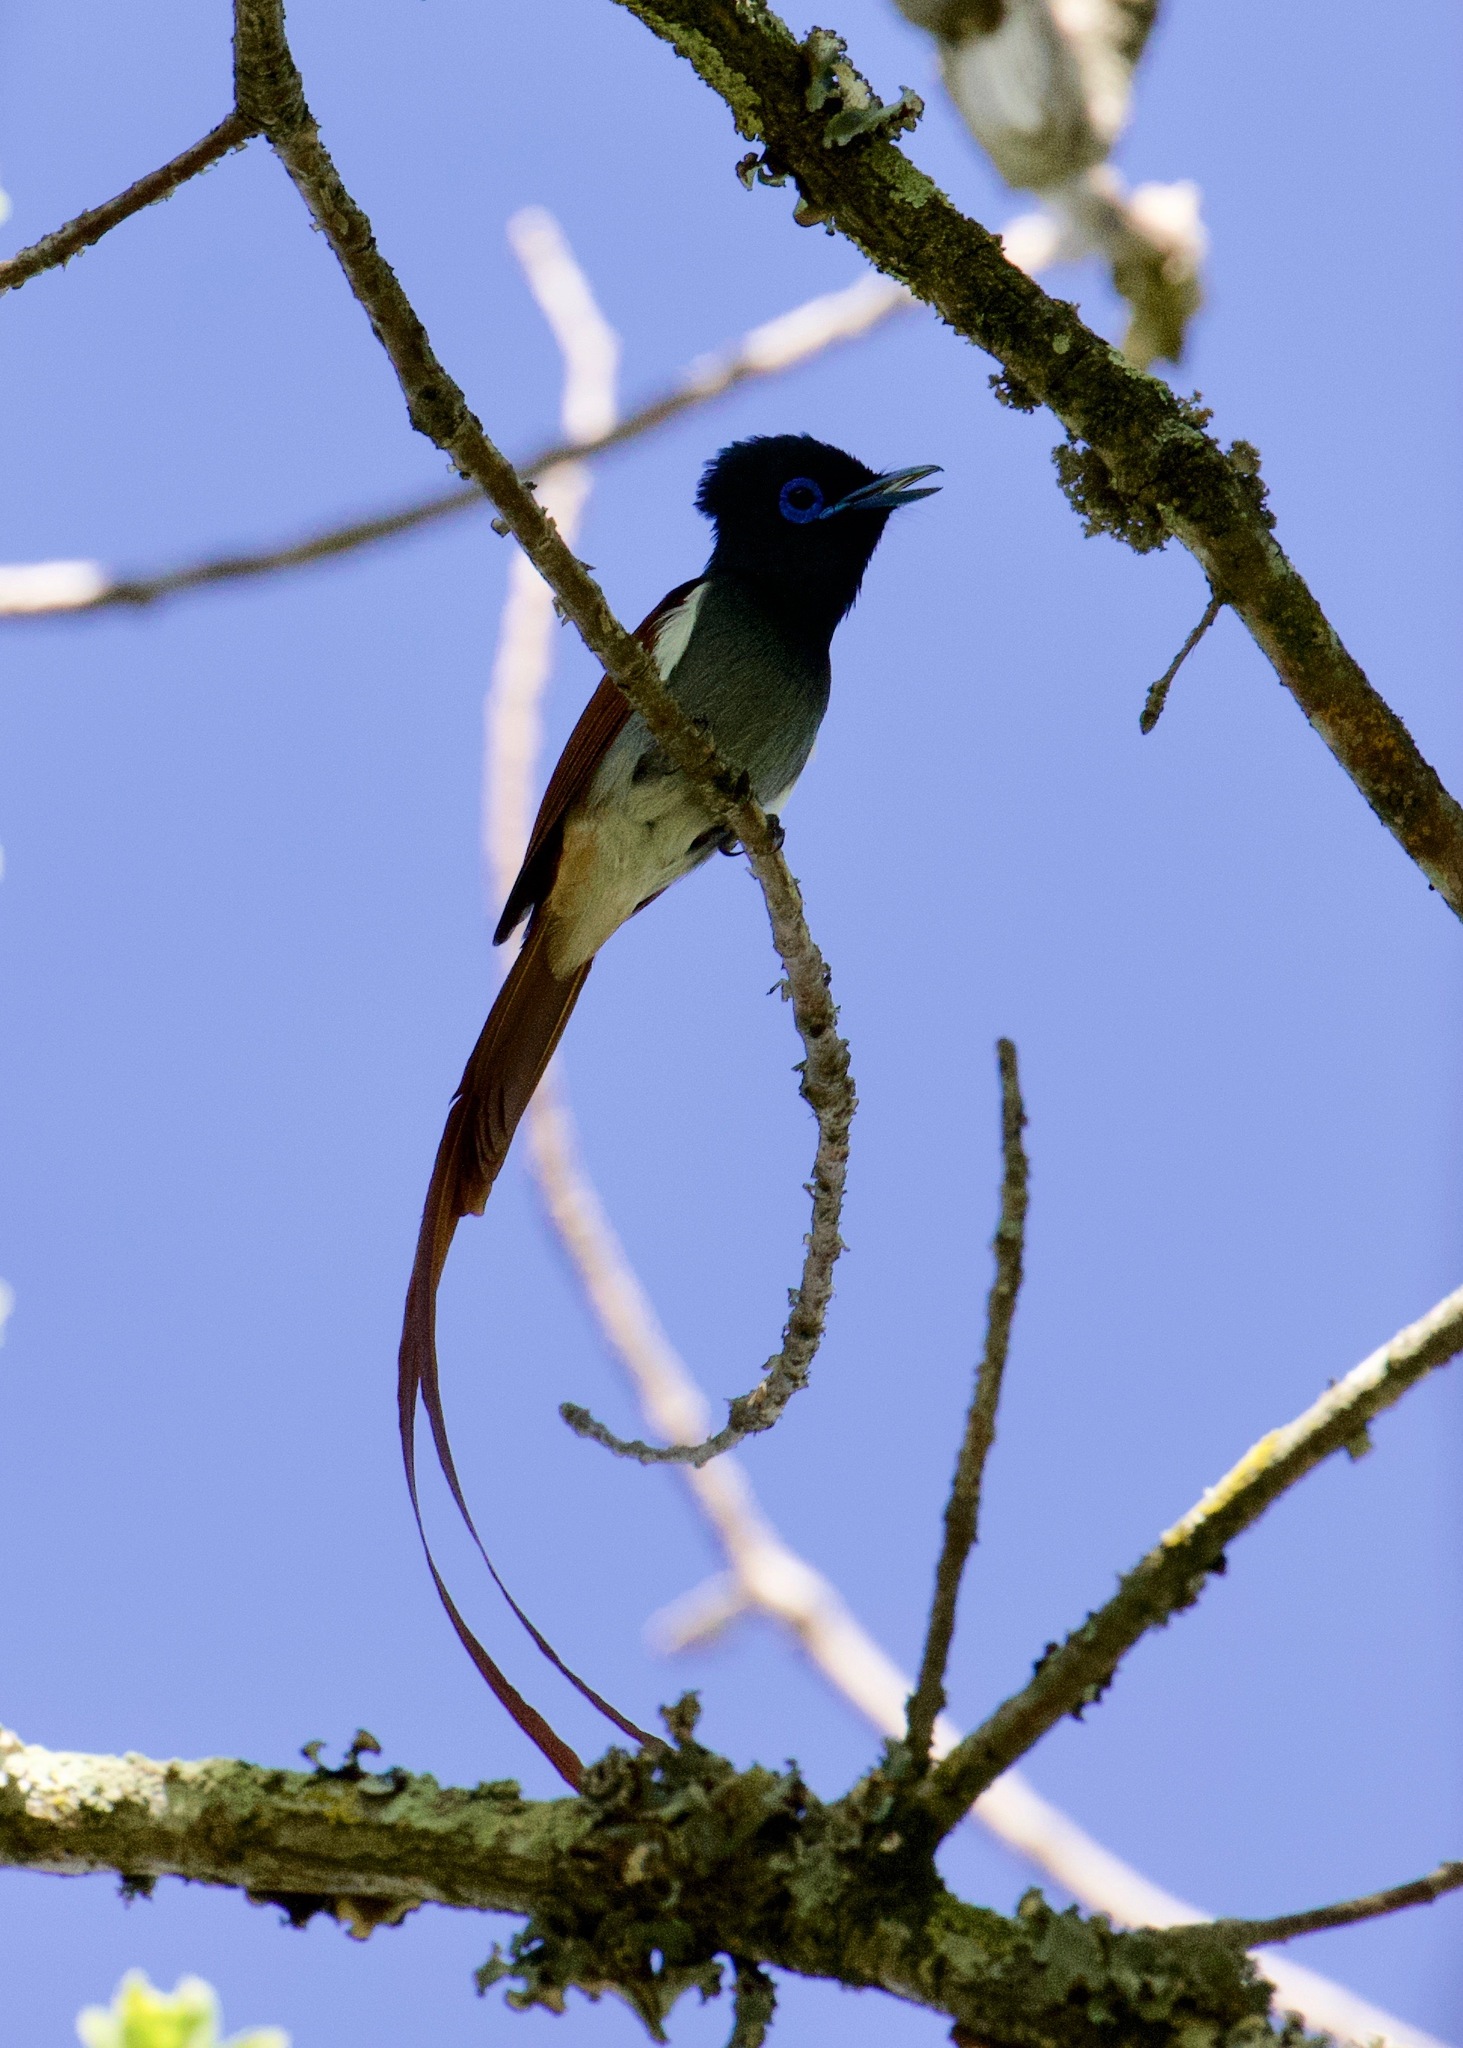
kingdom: Animalia
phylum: Chordata
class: Aves
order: Passeriformes
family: Monarchidae
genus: Terpsiphone
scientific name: Terpsiphone viridis
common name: African paradise flycatcher
